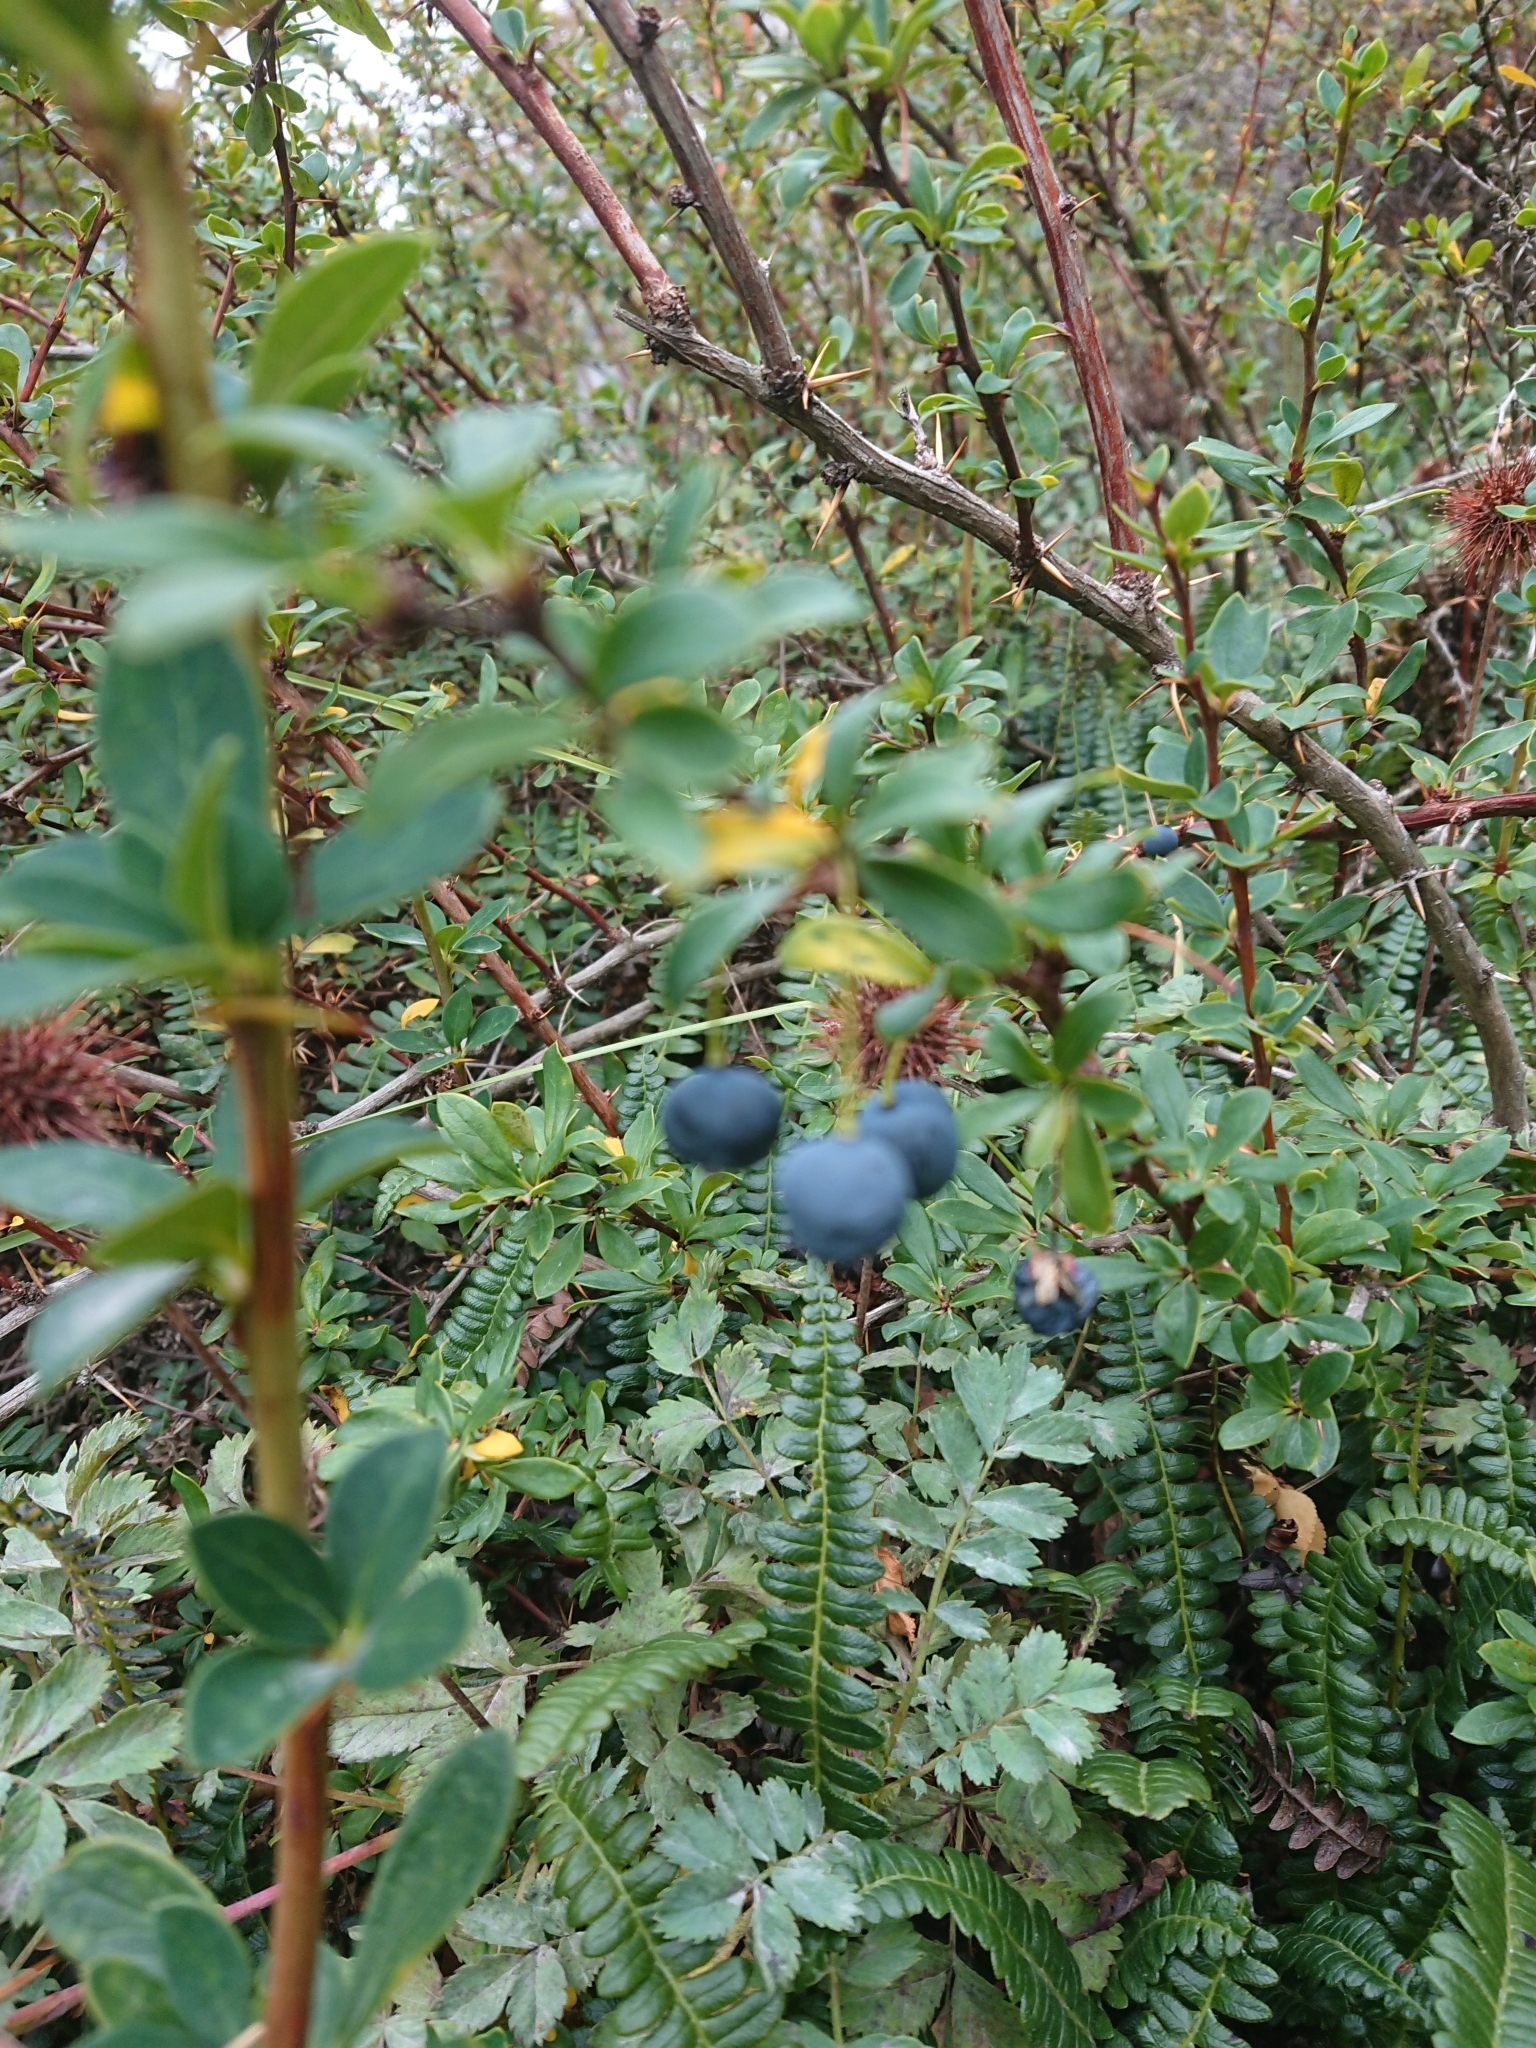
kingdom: Plantae
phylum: Tracheophyta
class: Magnoliopsida
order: Ranunculales
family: Berberidaceae
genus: Berberis
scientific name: Berberis microphylla
